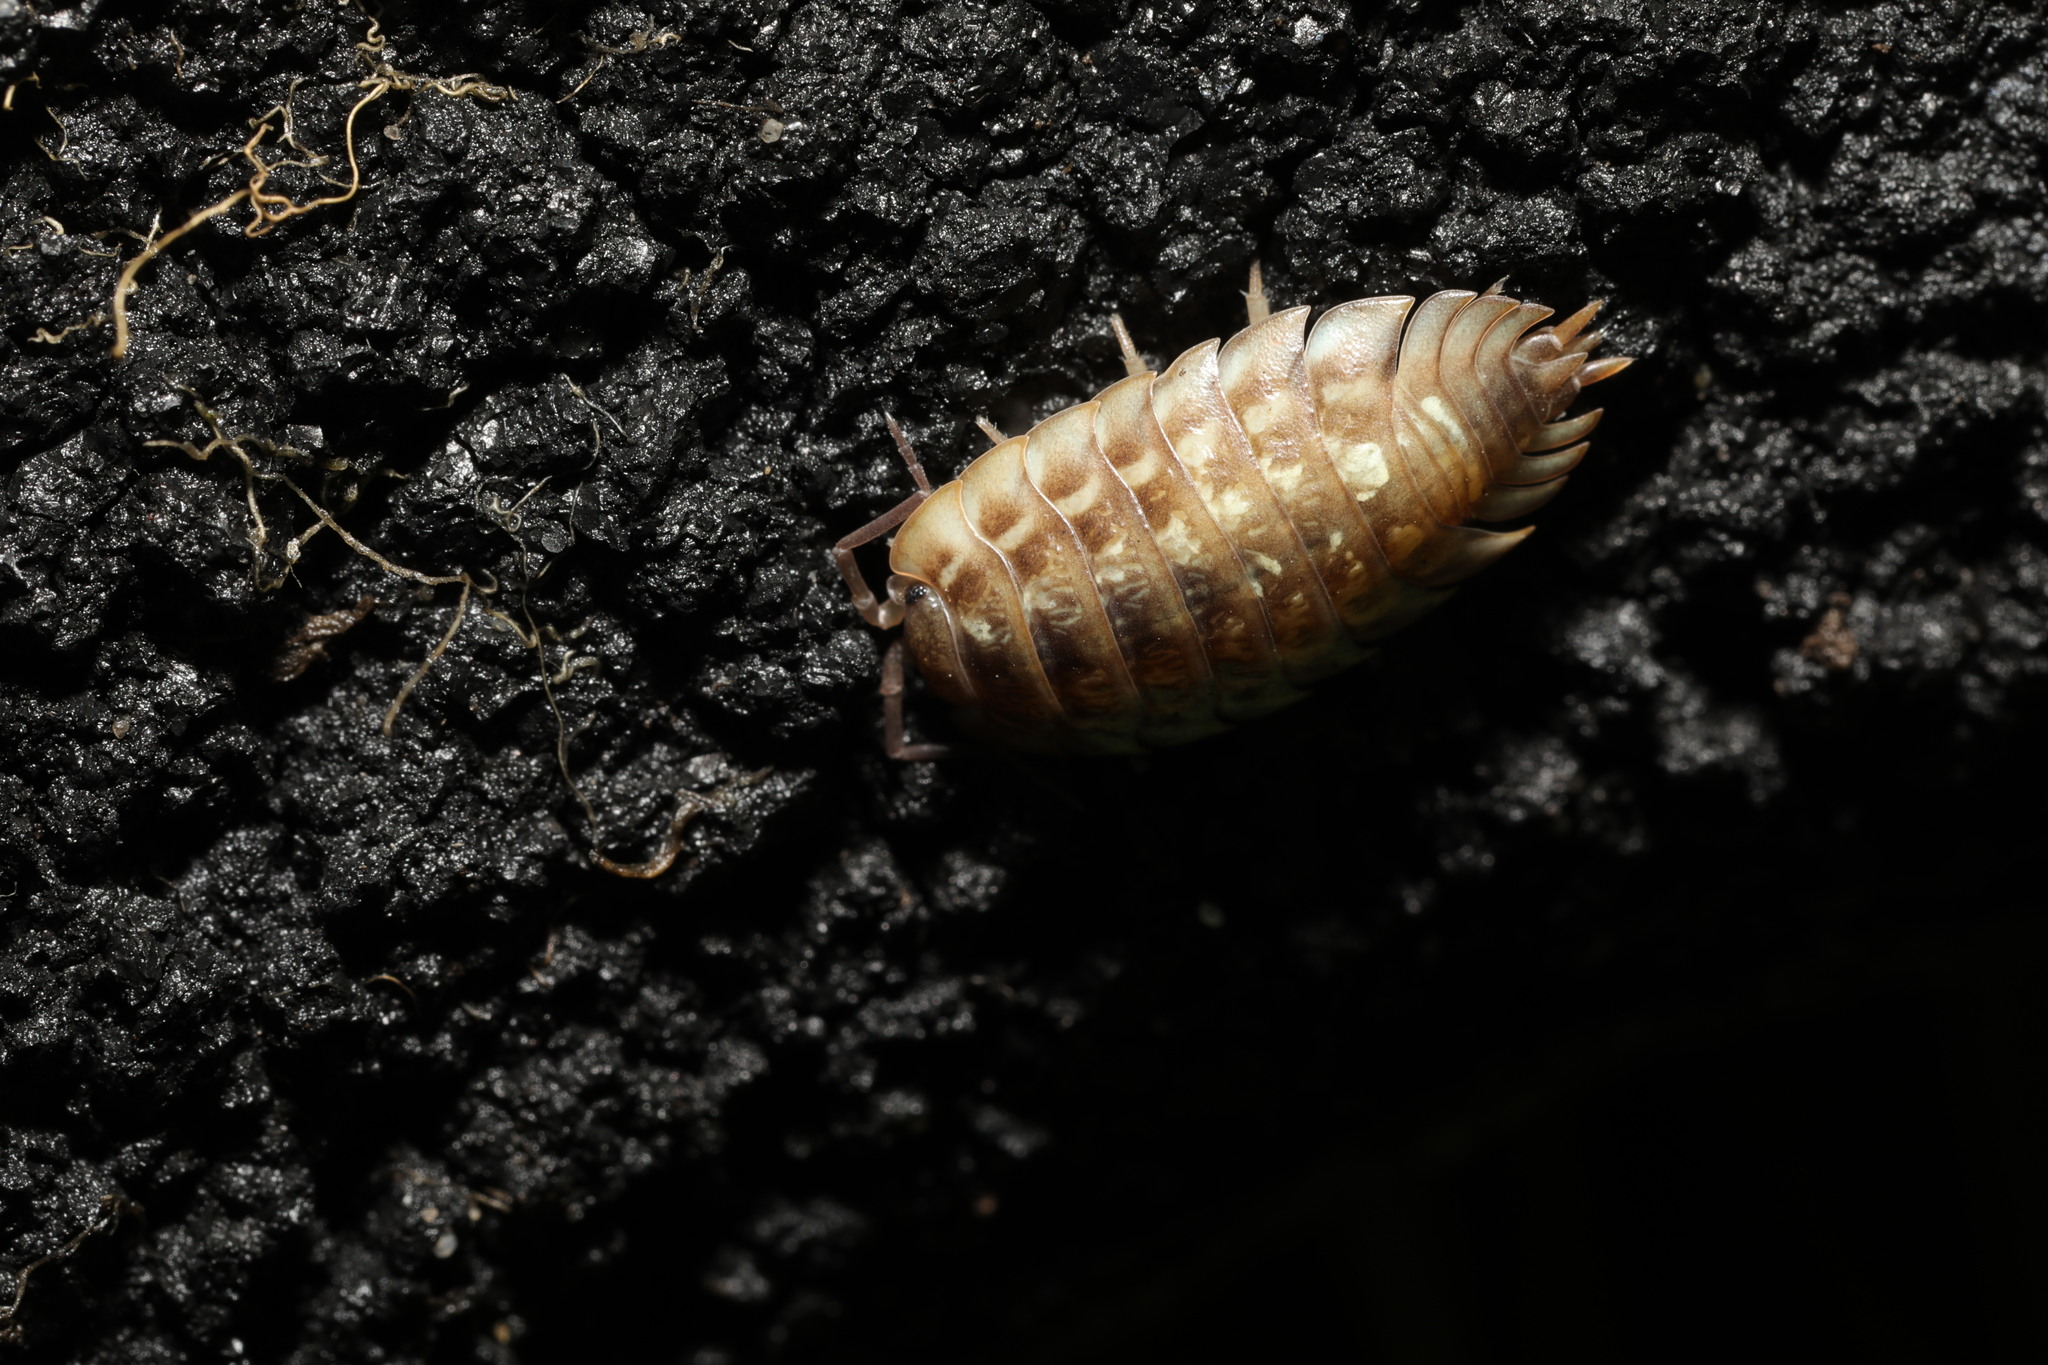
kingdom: Animalia
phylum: Arthropoda
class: Malacostraca
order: Isopoda
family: Oniscidae
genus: Oniscus
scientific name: Oniscus asellus
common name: Common shiny woodlouse
